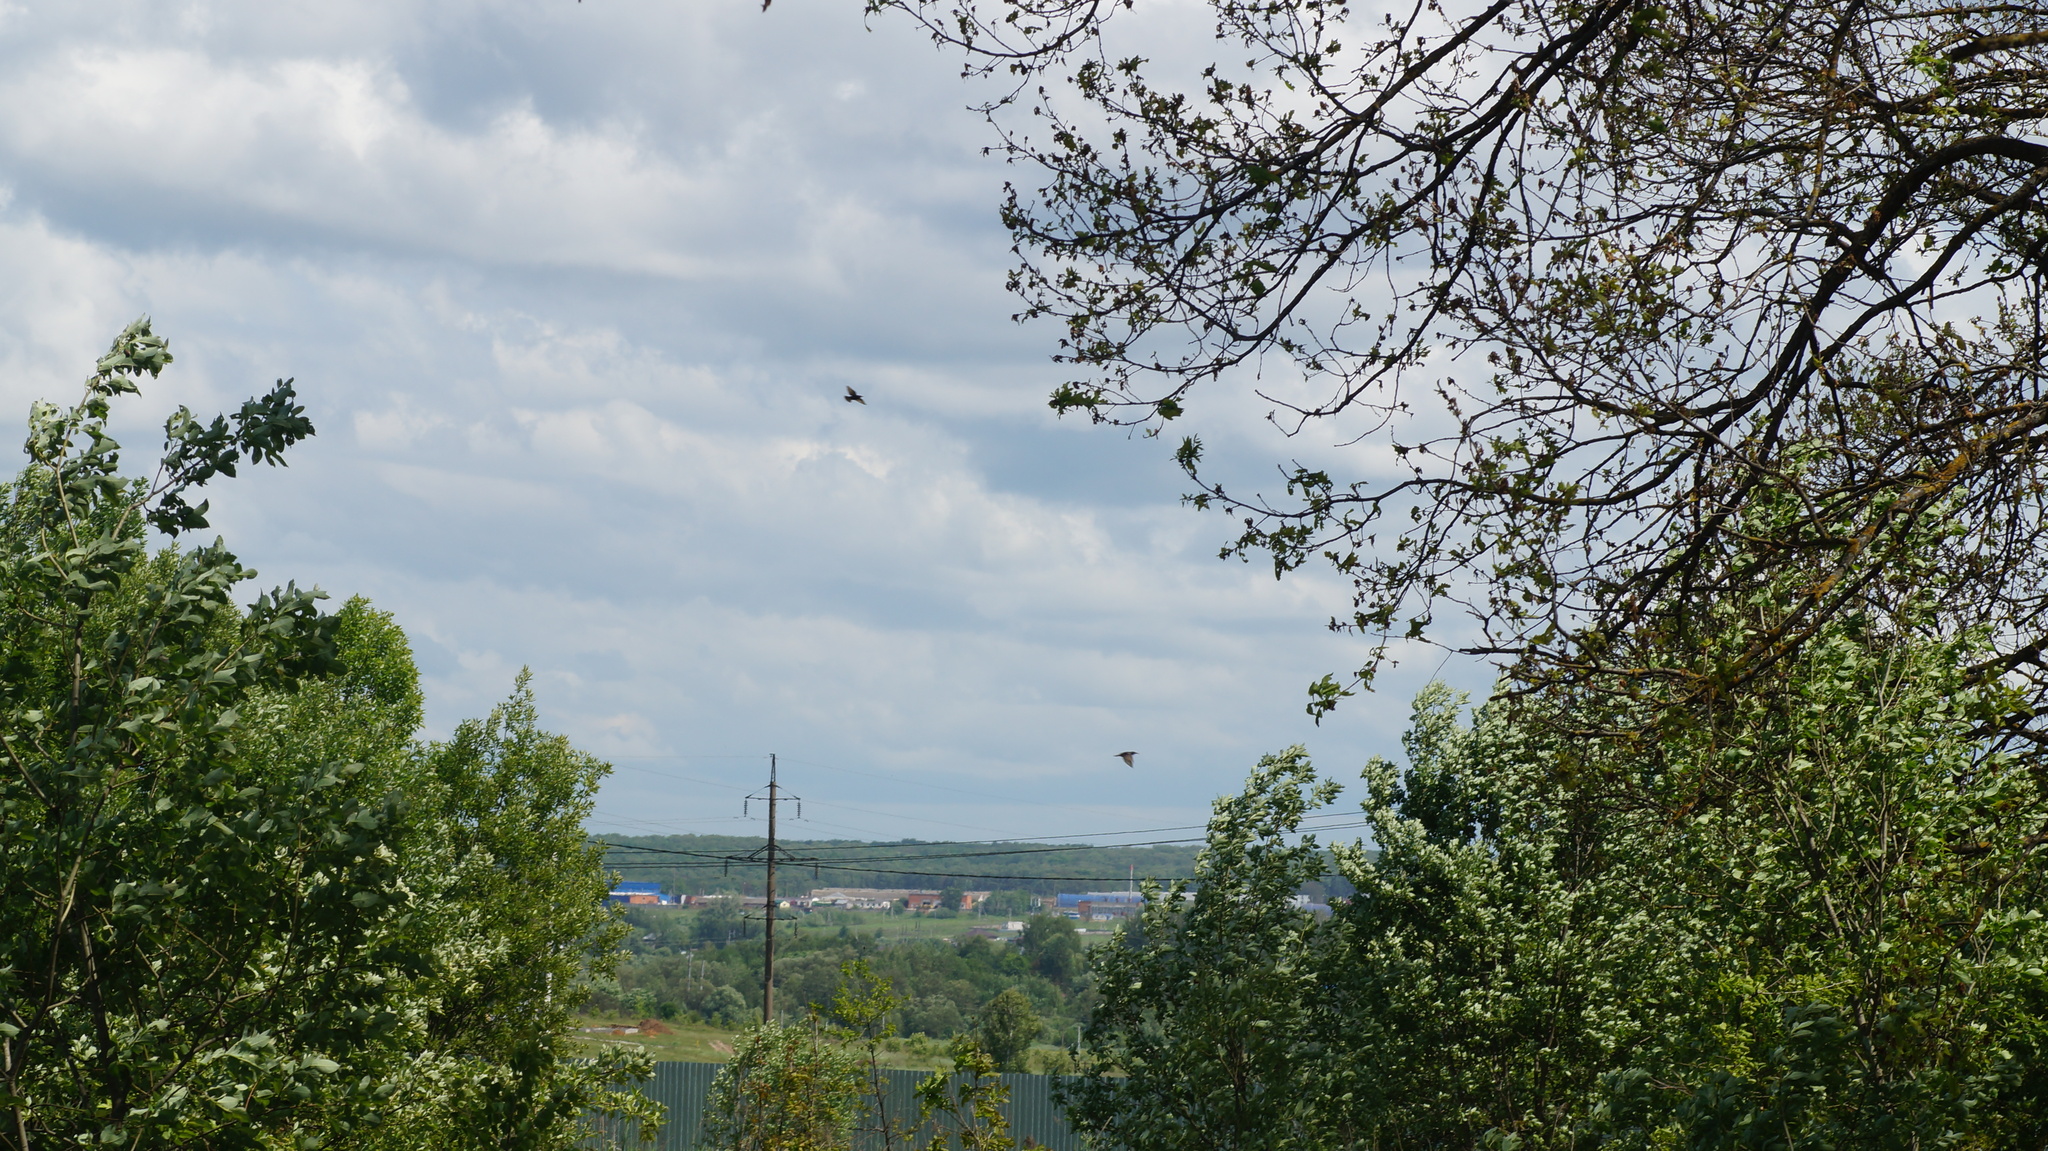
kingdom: Animalia
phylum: Chordata
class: Aves
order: Passeriformes
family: Sturnidae
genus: Sturnus
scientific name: Sturnus vulgaris
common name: Common starling
